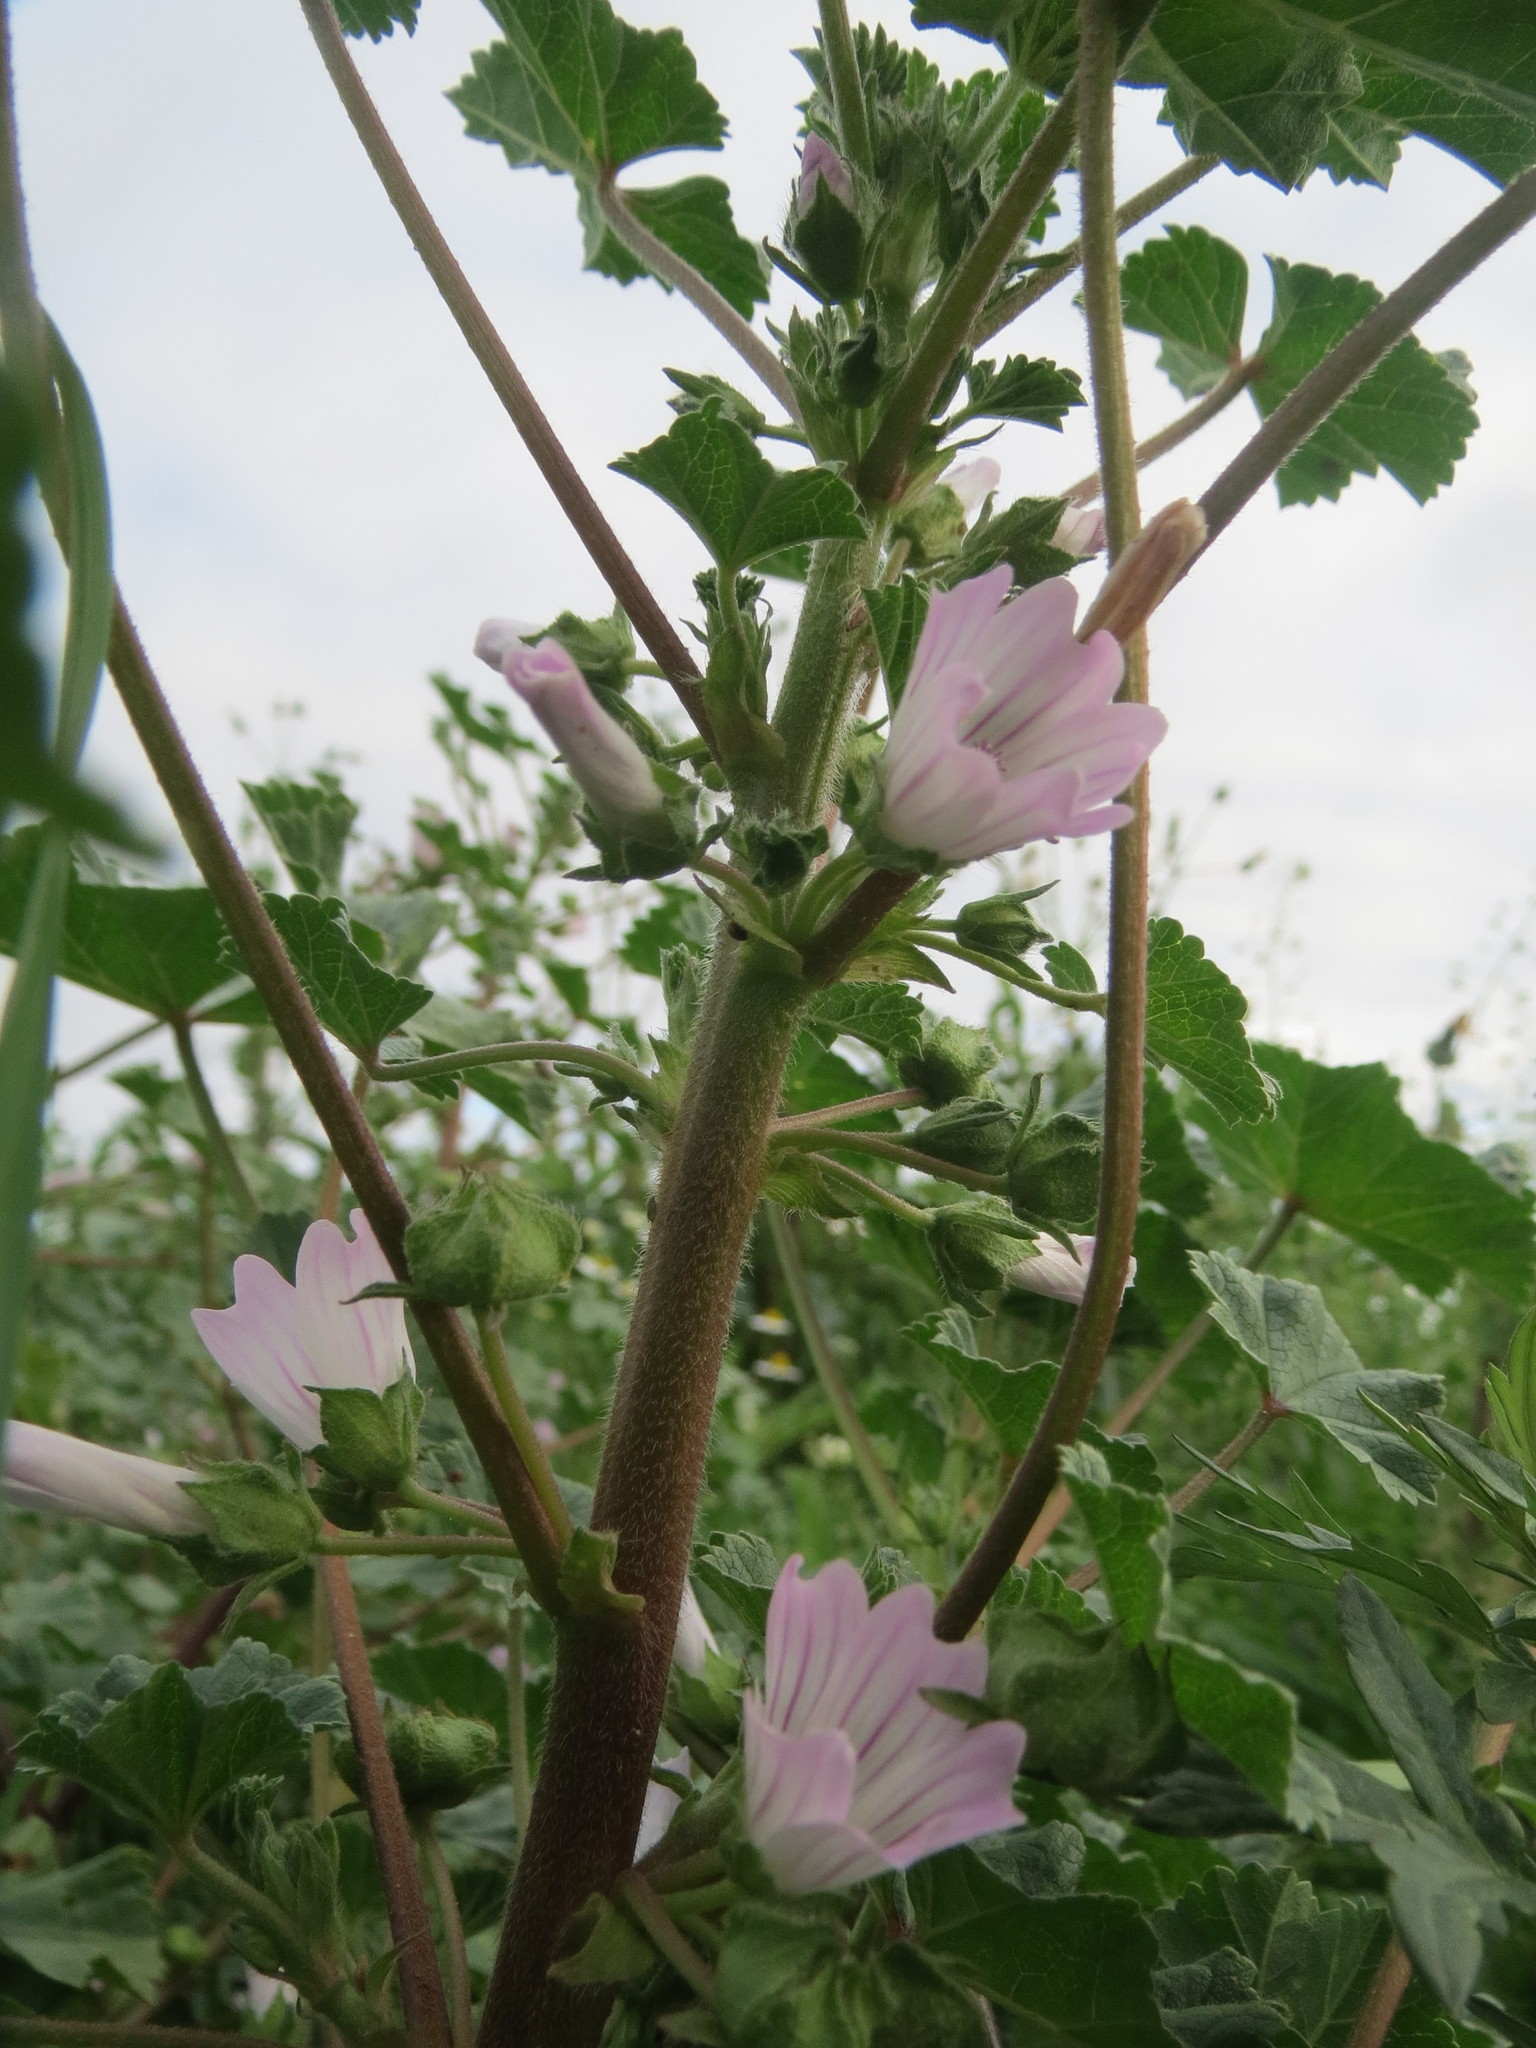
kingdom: Plantae
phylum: Tracheophyta
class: Magnoliopsida
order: Malvales
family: Malvaceae
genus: Malva
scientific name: Malva neglecta
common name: Common mallow
